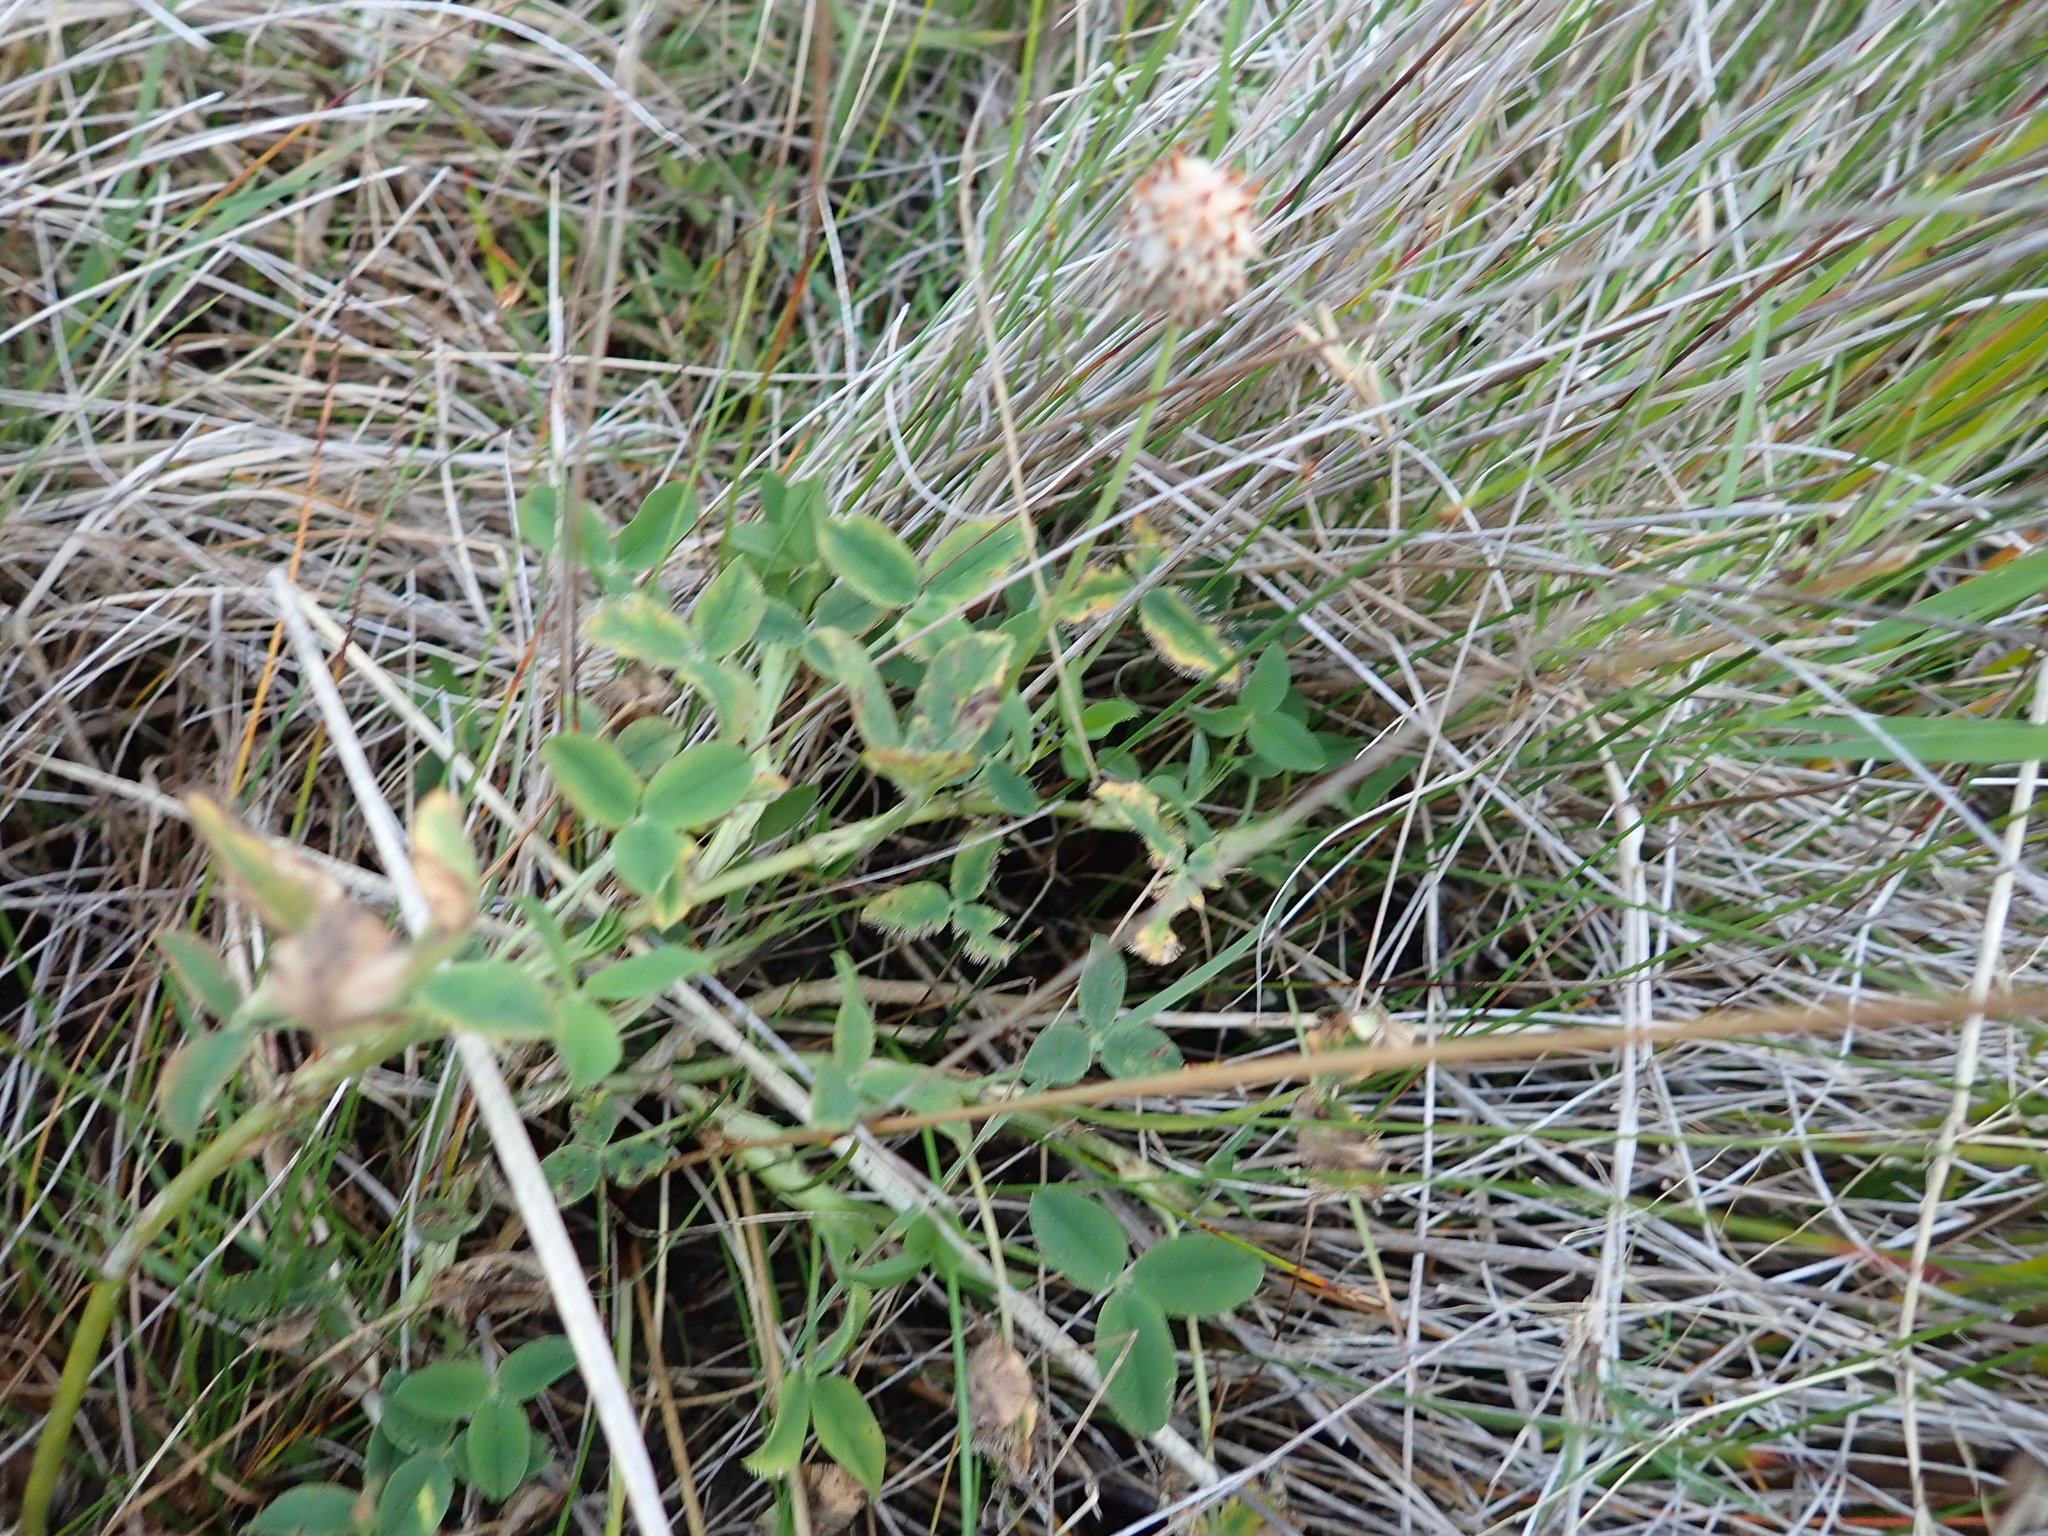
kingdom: Plantae
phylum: Tracheophyta
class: Magnoliopsida
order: Fabales
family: Fabaceae
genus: Trifolium
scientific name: Trifolium fragiferum
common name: Strawberry clover
